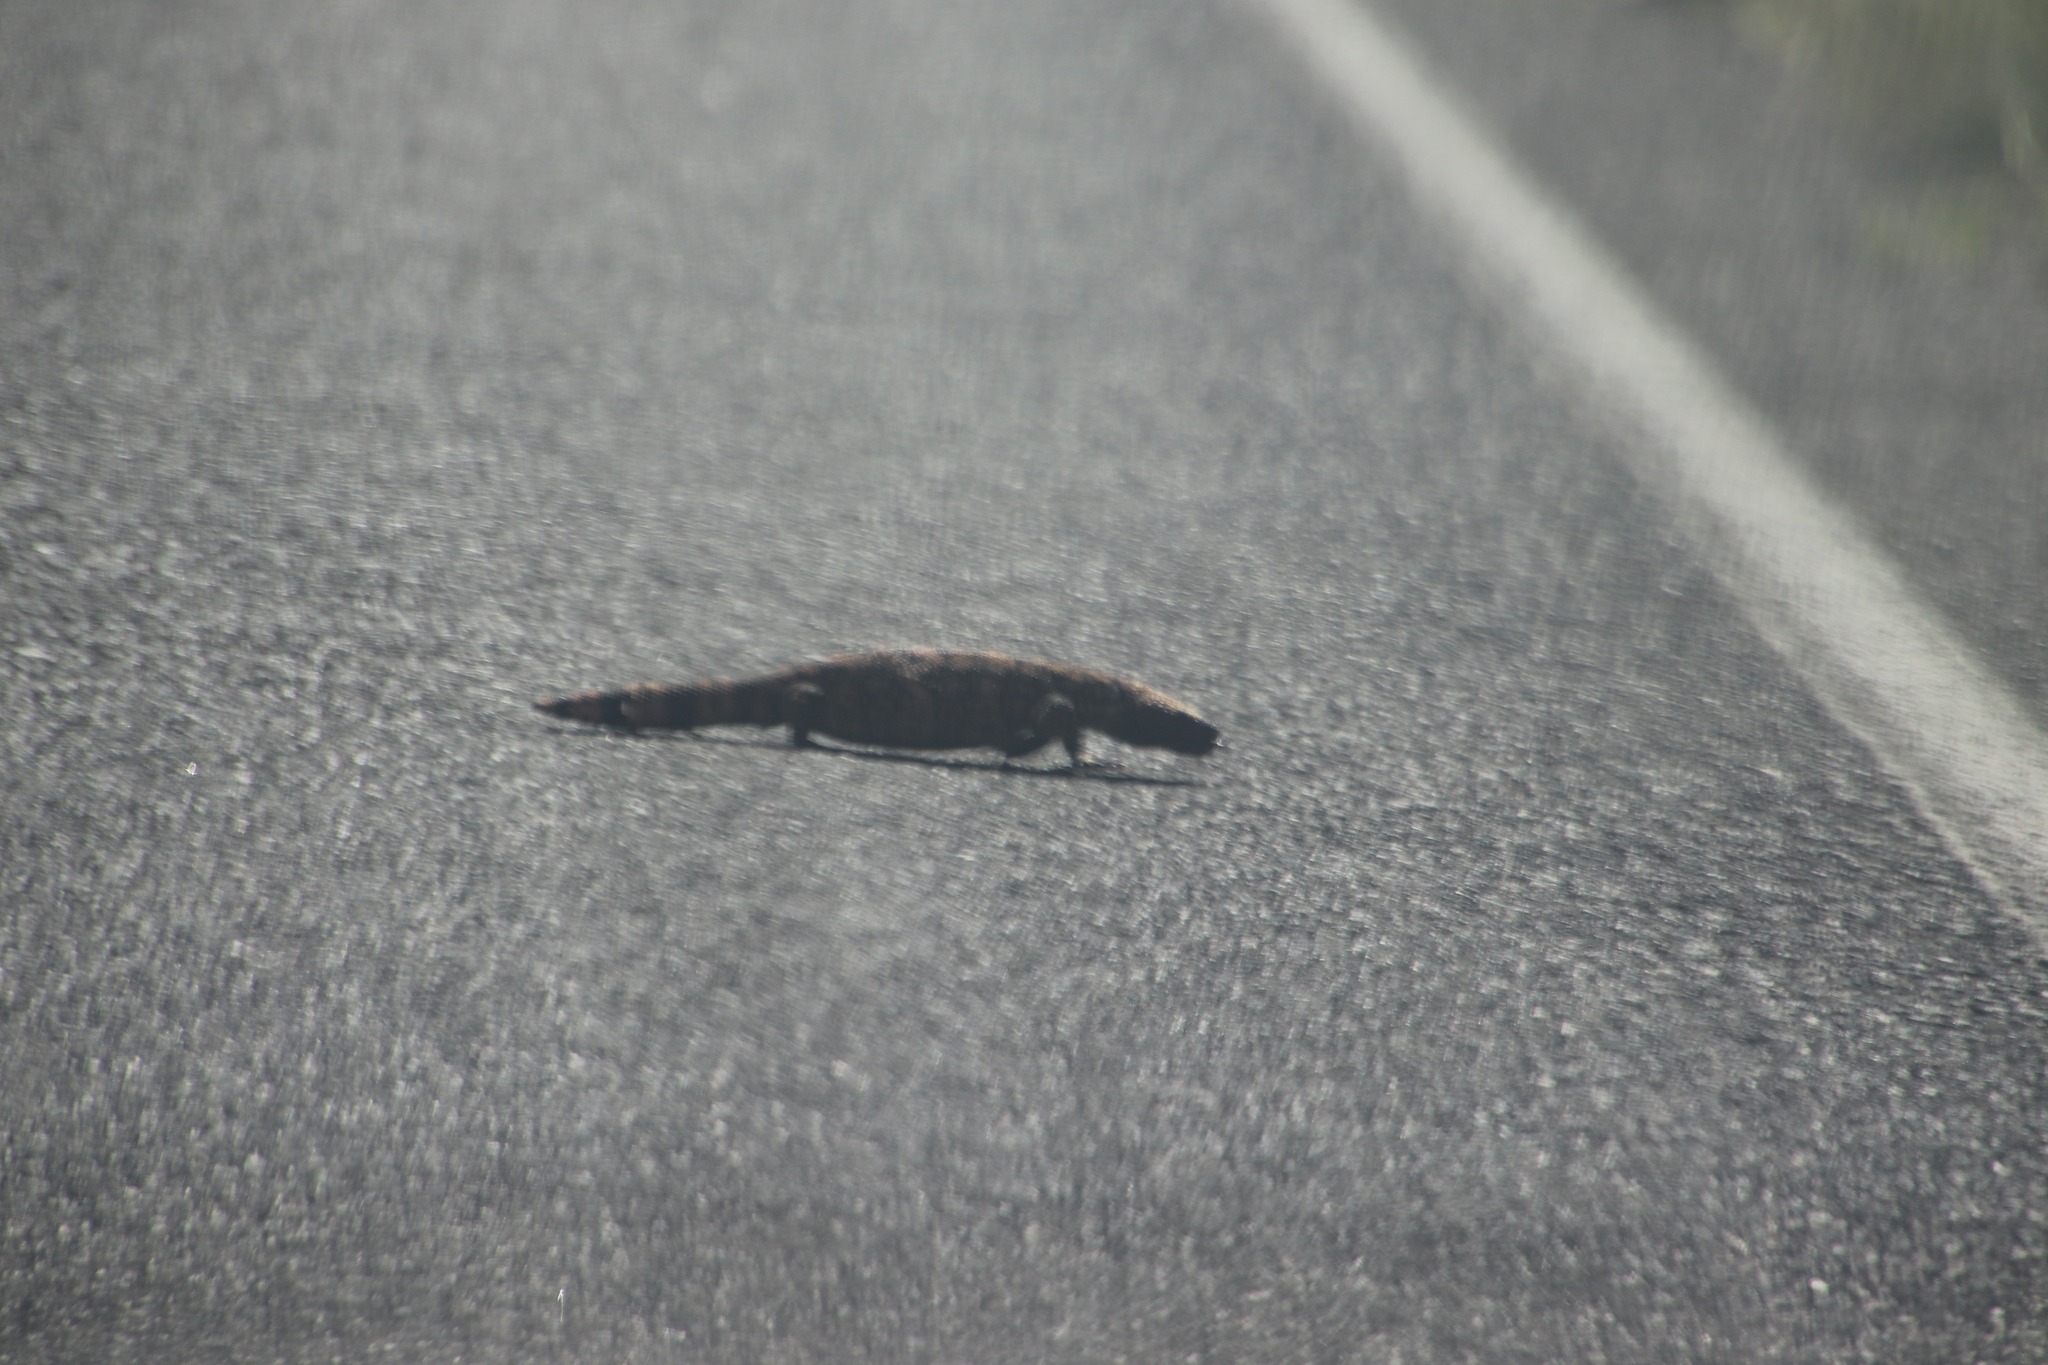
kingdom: Animalia
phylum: Chordata
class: Squamata
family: Helodermatidae
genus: Heloderma
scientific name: Heloderma suspectum
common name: Gila monster
